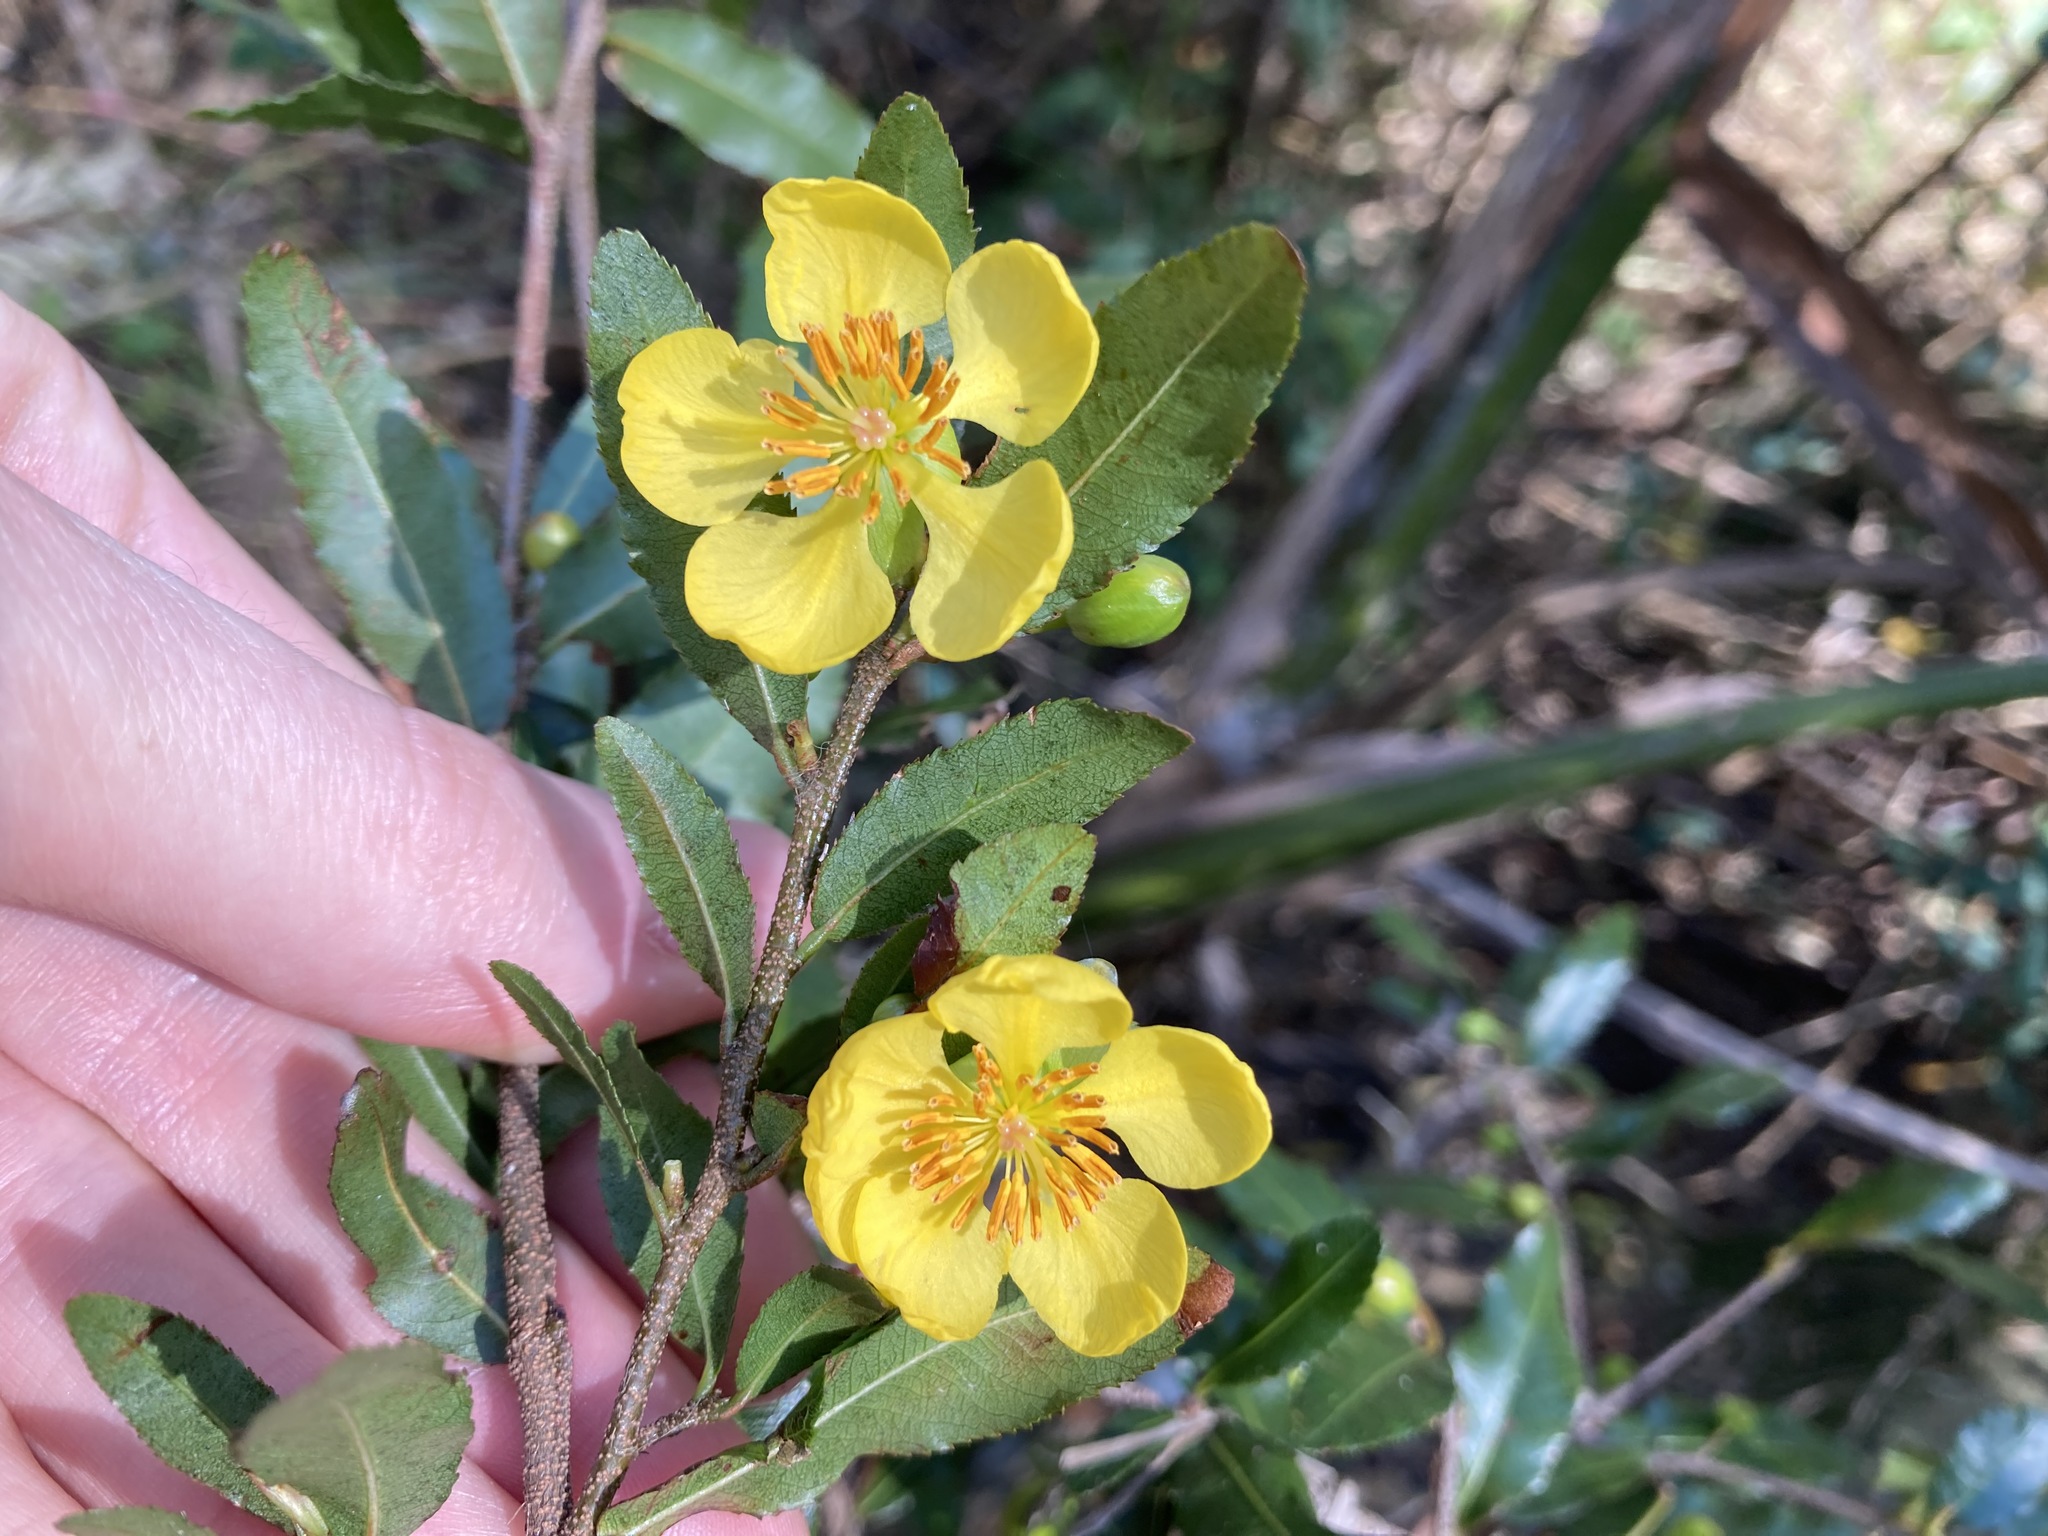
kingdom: Plantae
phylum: Tracheophyta
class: Magnoliopsida
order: Malpighiales
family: Ochnaceae
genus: Ochna
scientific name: Ochna serrulata
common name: Mickey mouse plant
